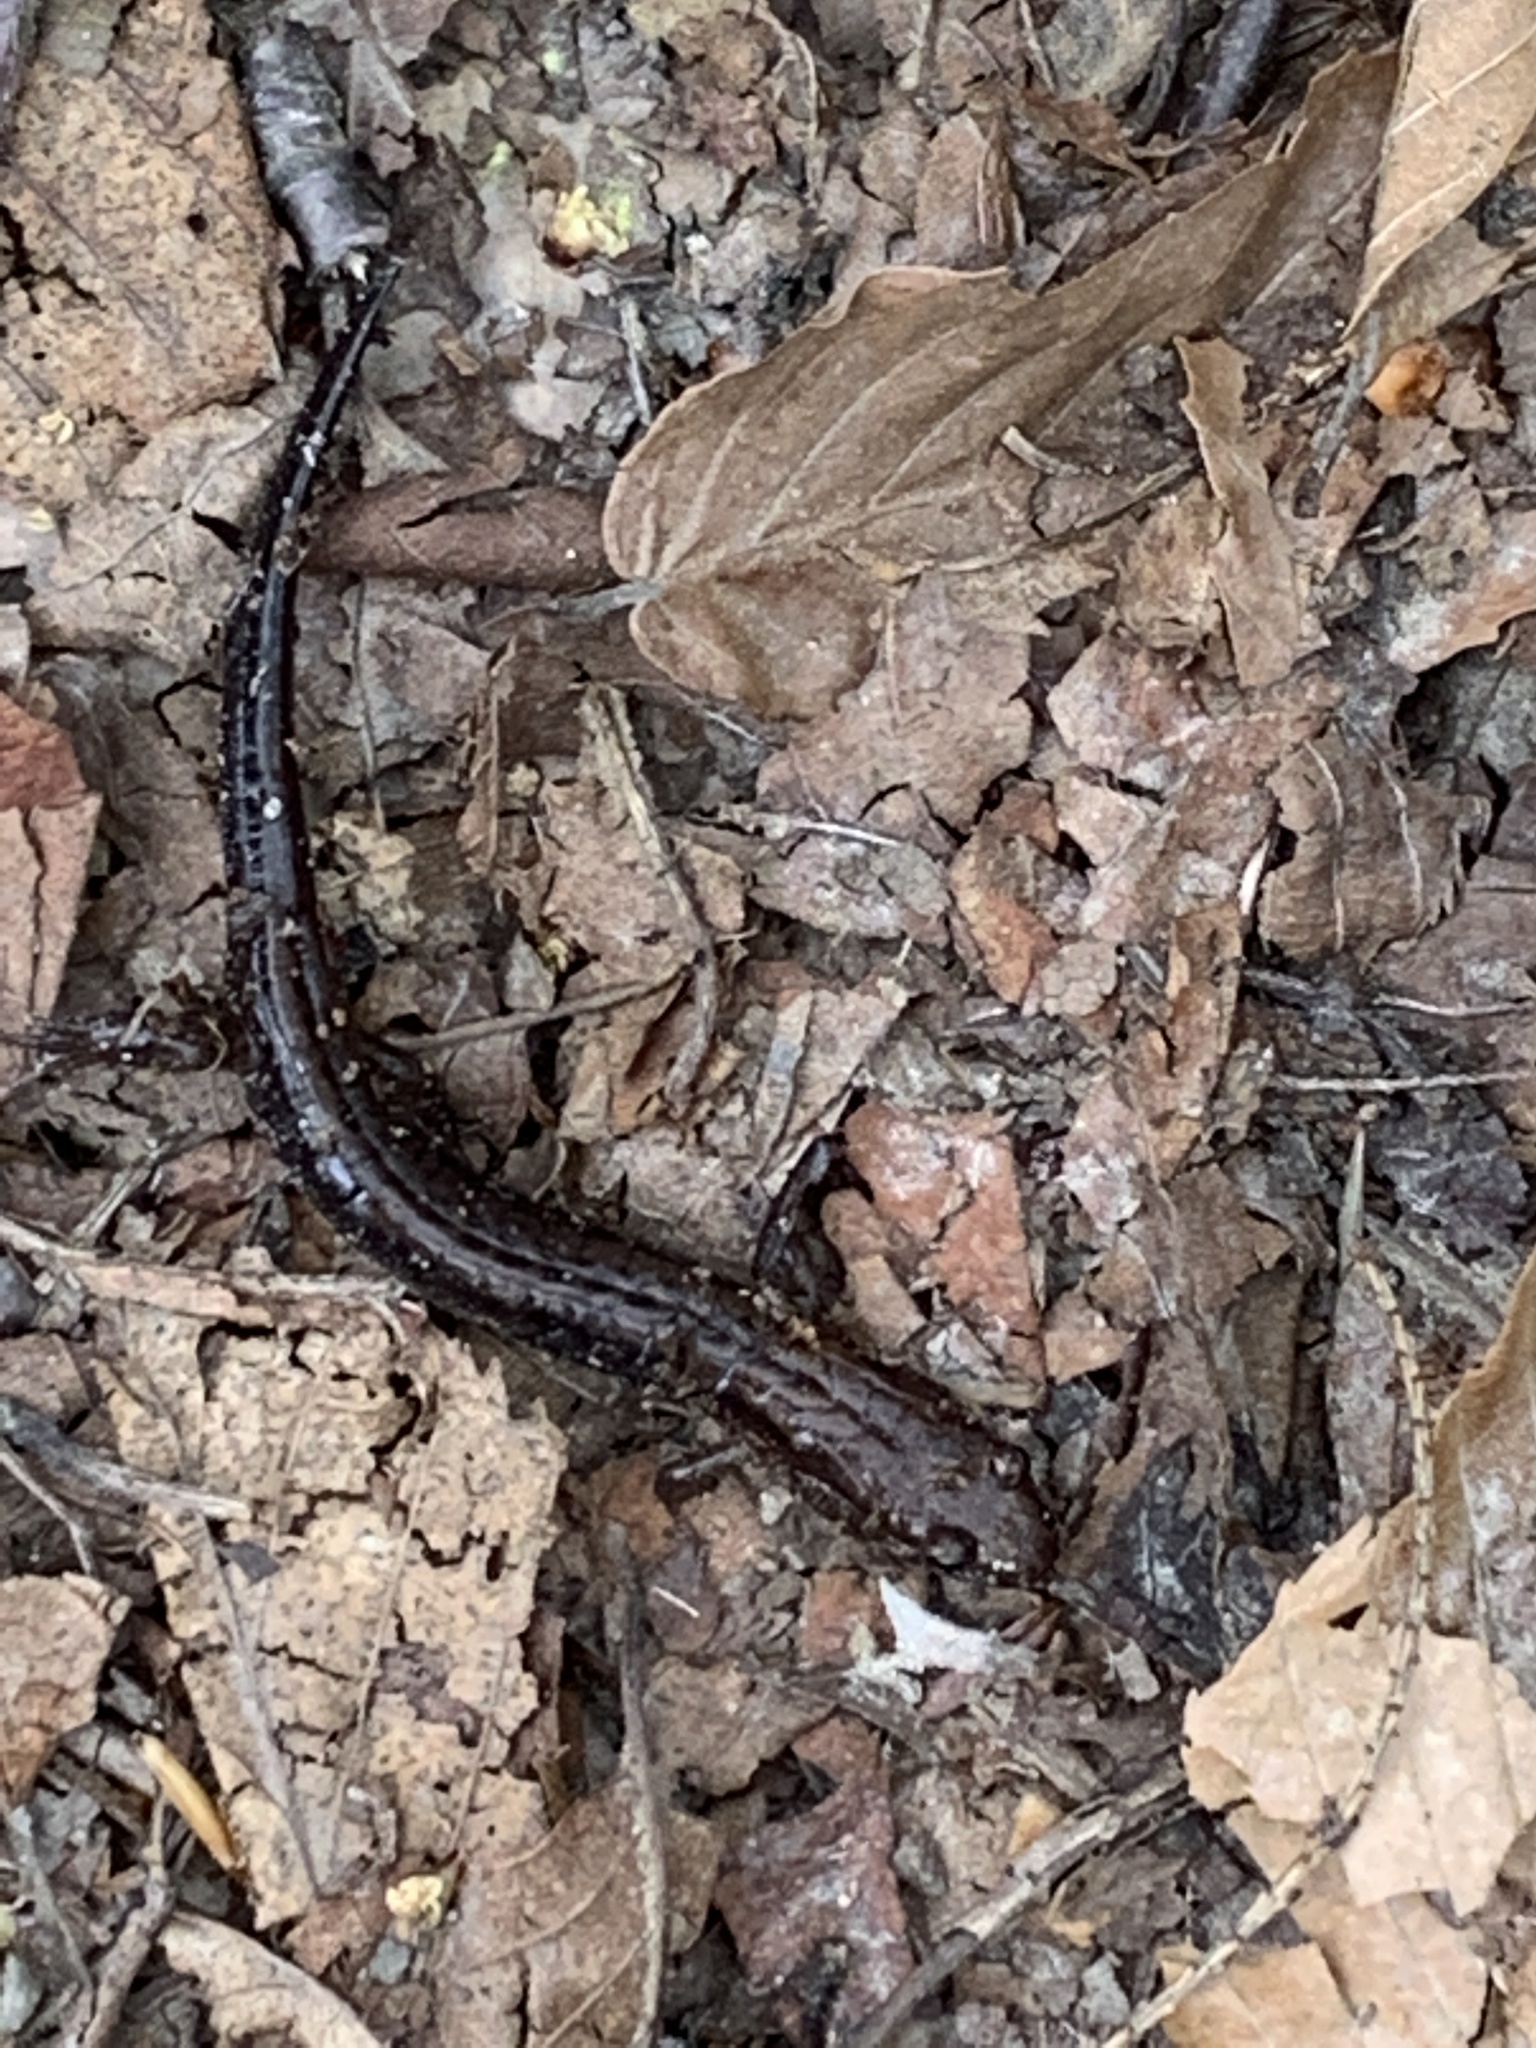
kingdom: Animalia
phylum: Chordata
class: Amphibia
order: Caudata
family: Plethodontidae
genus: Desmognathus
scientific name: Desmognathus ochrophaeus
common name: Allegheny mountain dusky salamander
